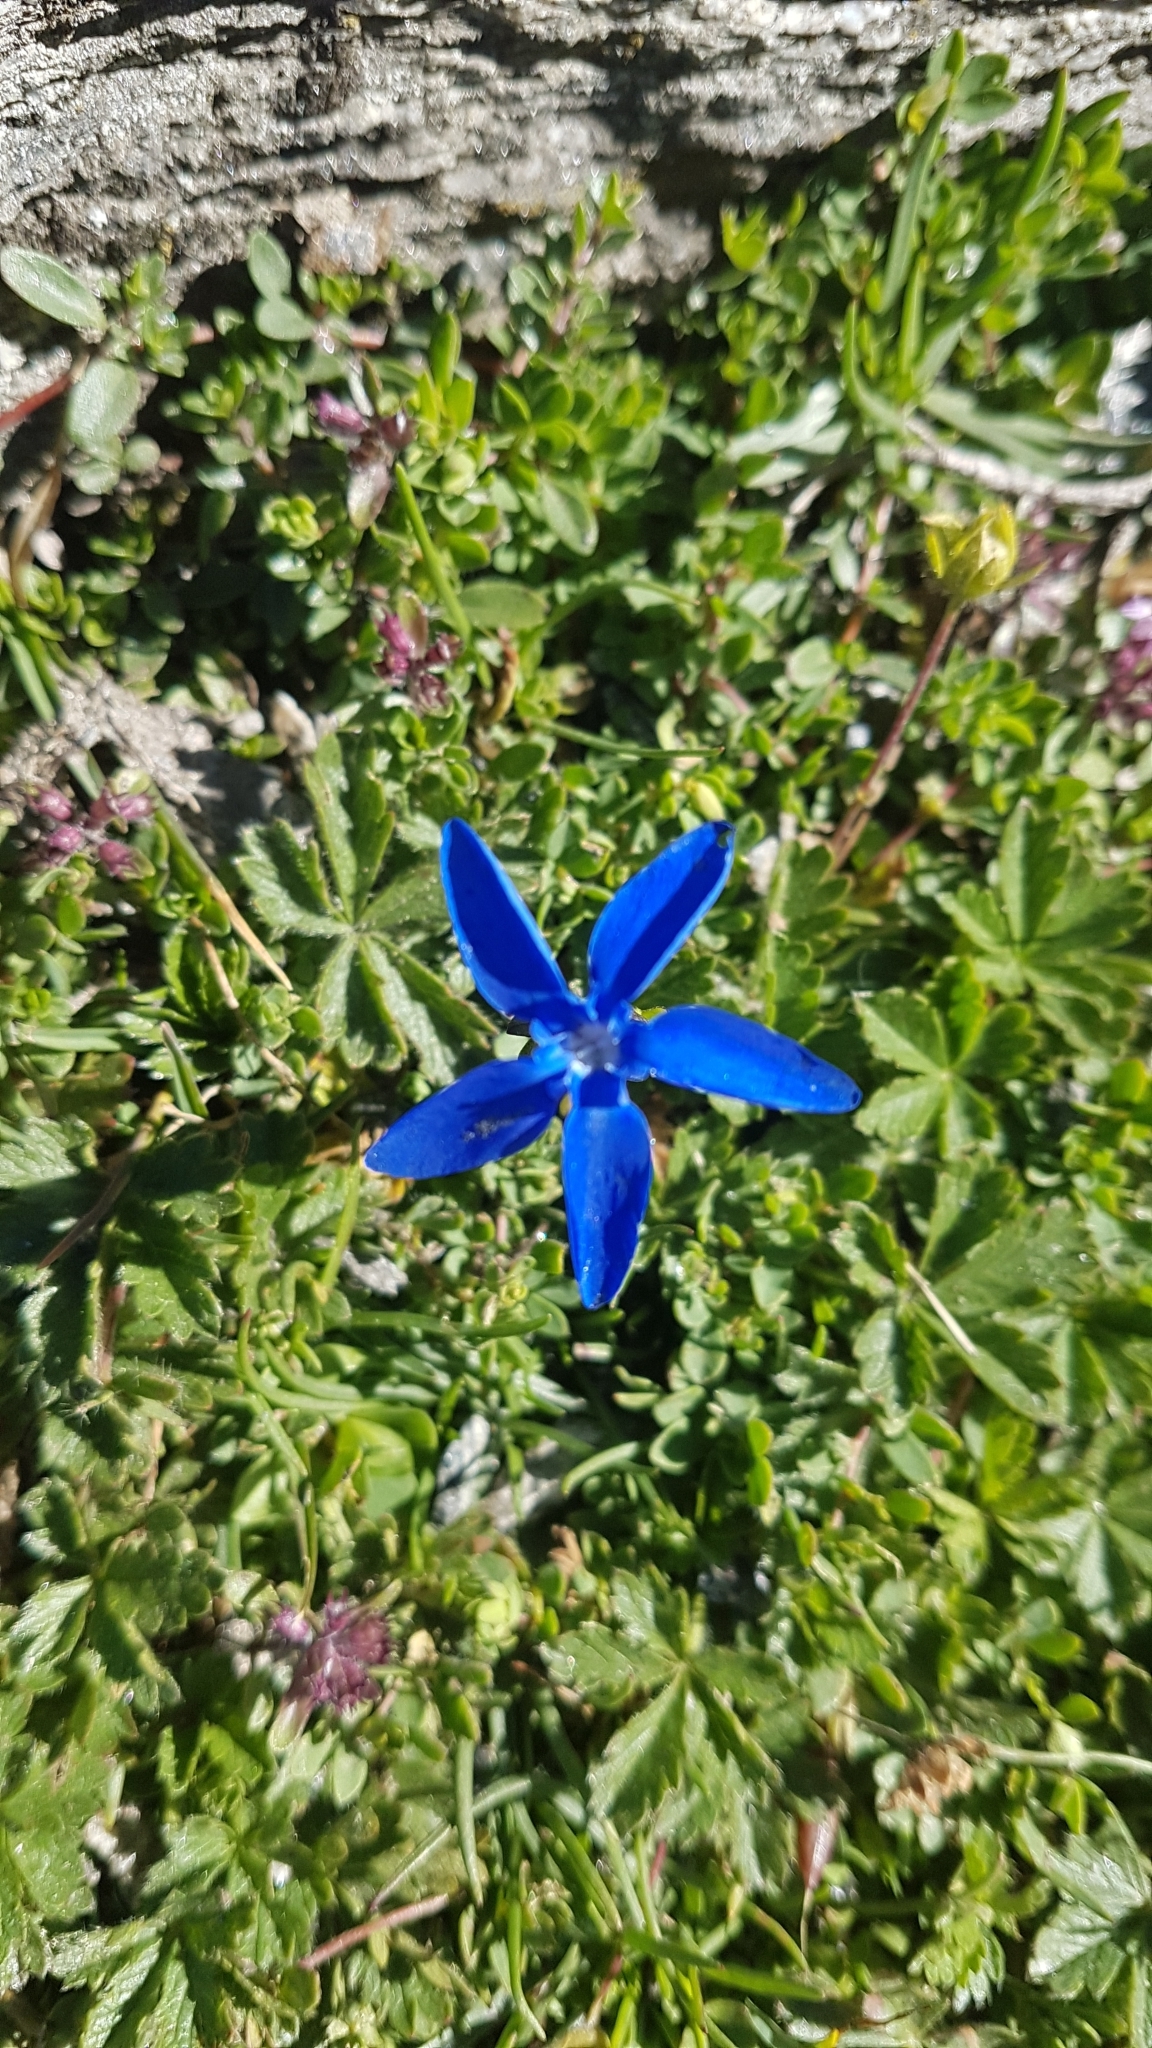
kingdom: Plantae
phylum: Tracheophyta
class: Magnoliopsida
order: Gentianales
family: Gentianaceae
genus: Gentiana
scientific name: Gentiana
